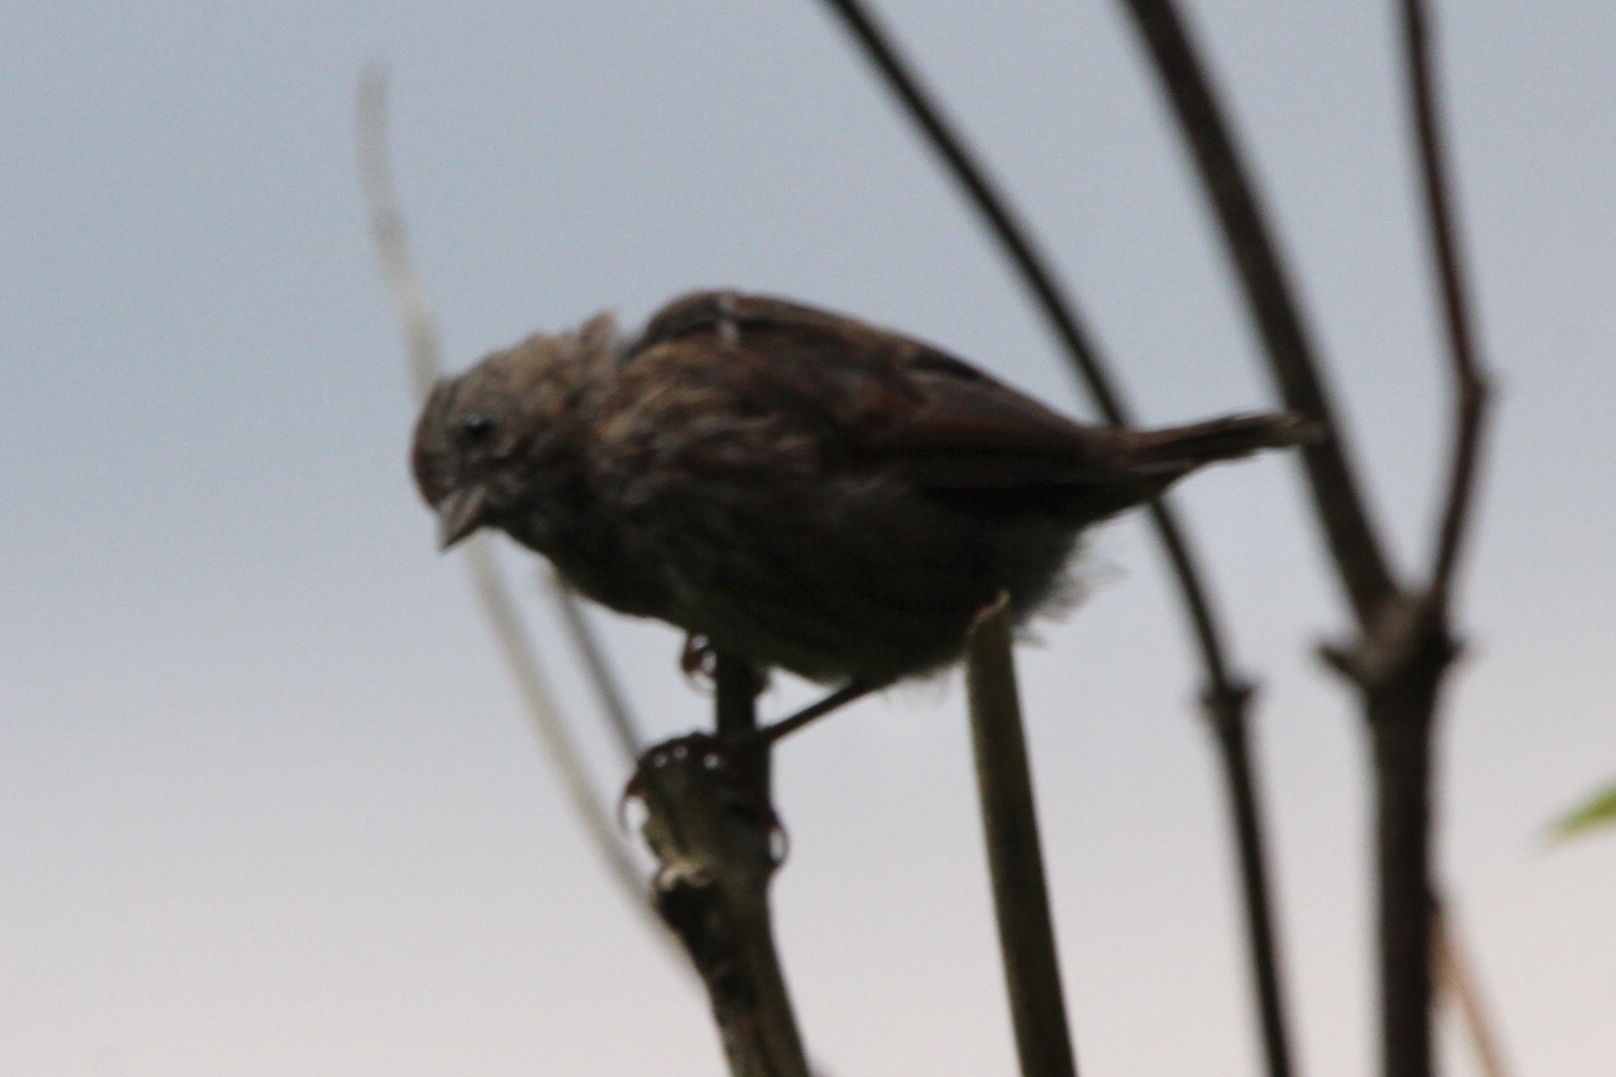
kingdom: Animalia
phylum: Chordata
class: Aves
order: Passeriformes
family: Passerellidae
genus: Melospiza
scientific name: Melospiza melodia
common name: Song sparrow
